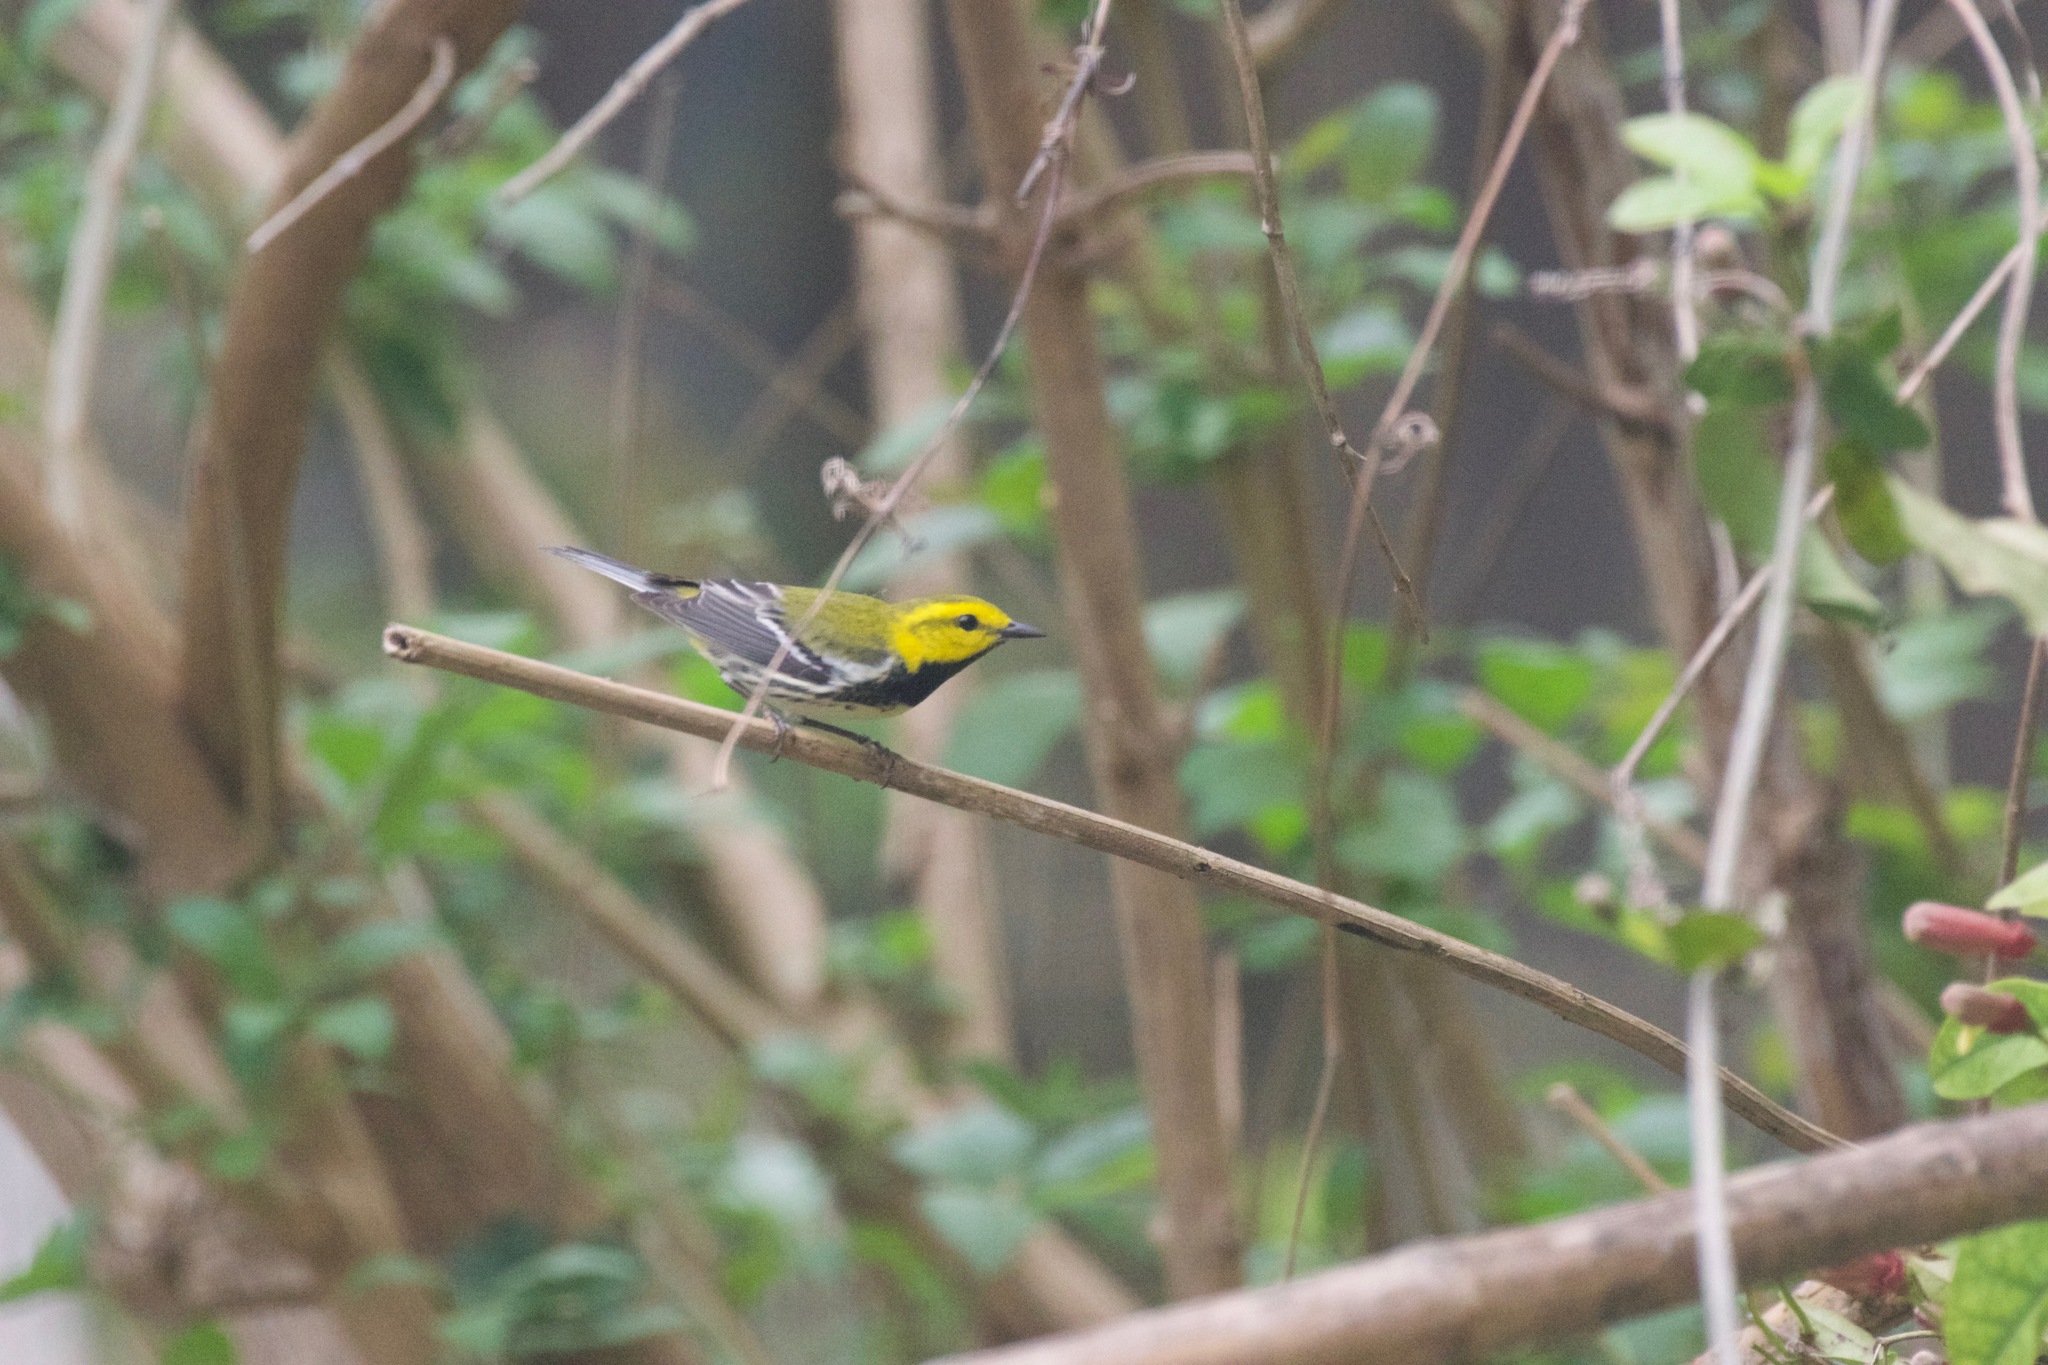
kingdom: Animalia
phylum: Chordata
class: Aves
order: Passeriformes
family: Parulidae
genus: Setophaga
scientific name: Setophaga virens
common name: Black-throated green warbler
